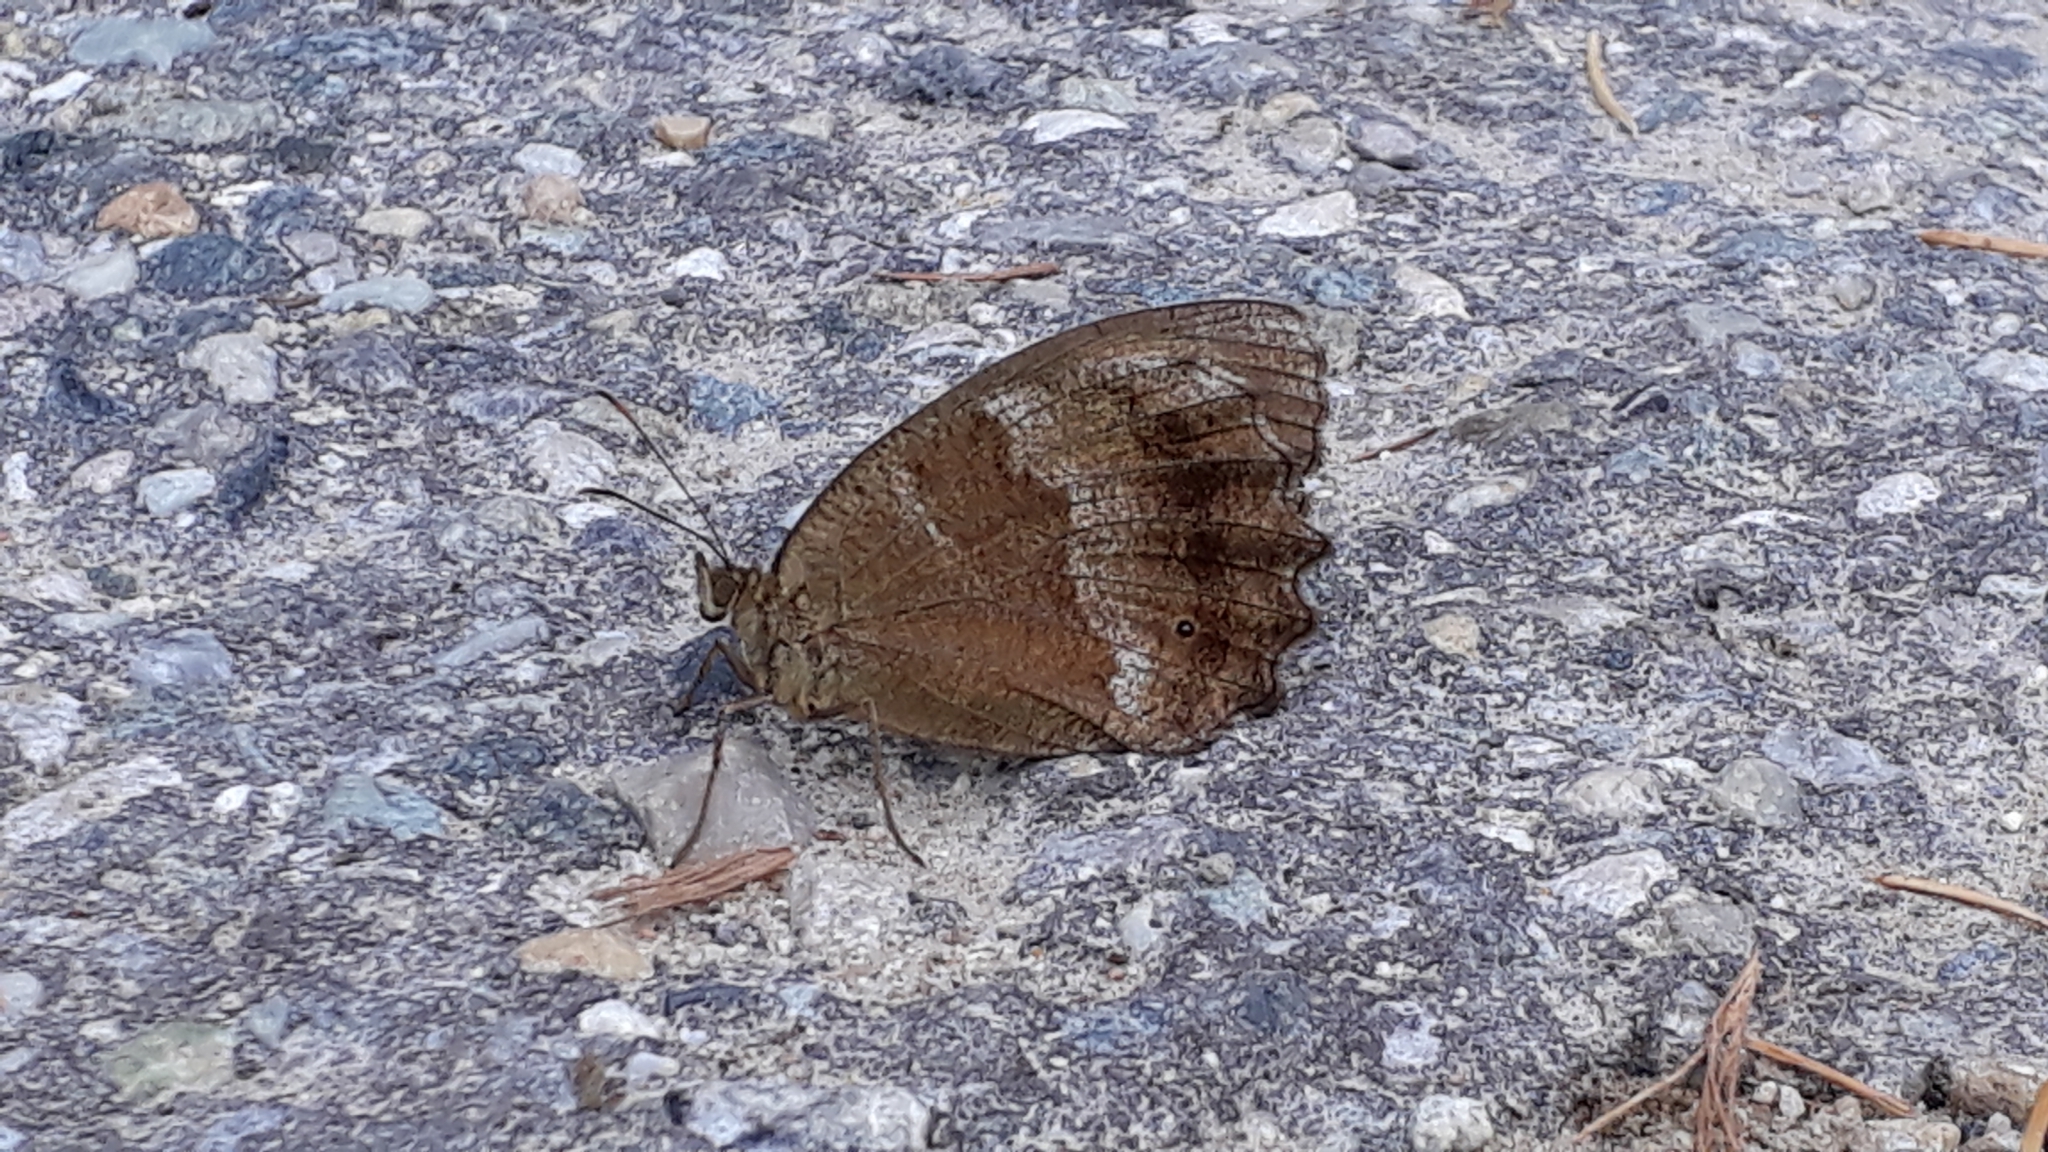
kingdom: Animalia
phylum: Arthropoda
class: Insecta
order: Lepidoptera
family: Nymphalidae
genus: Minois
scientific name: Minois dryas
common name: Dryad
